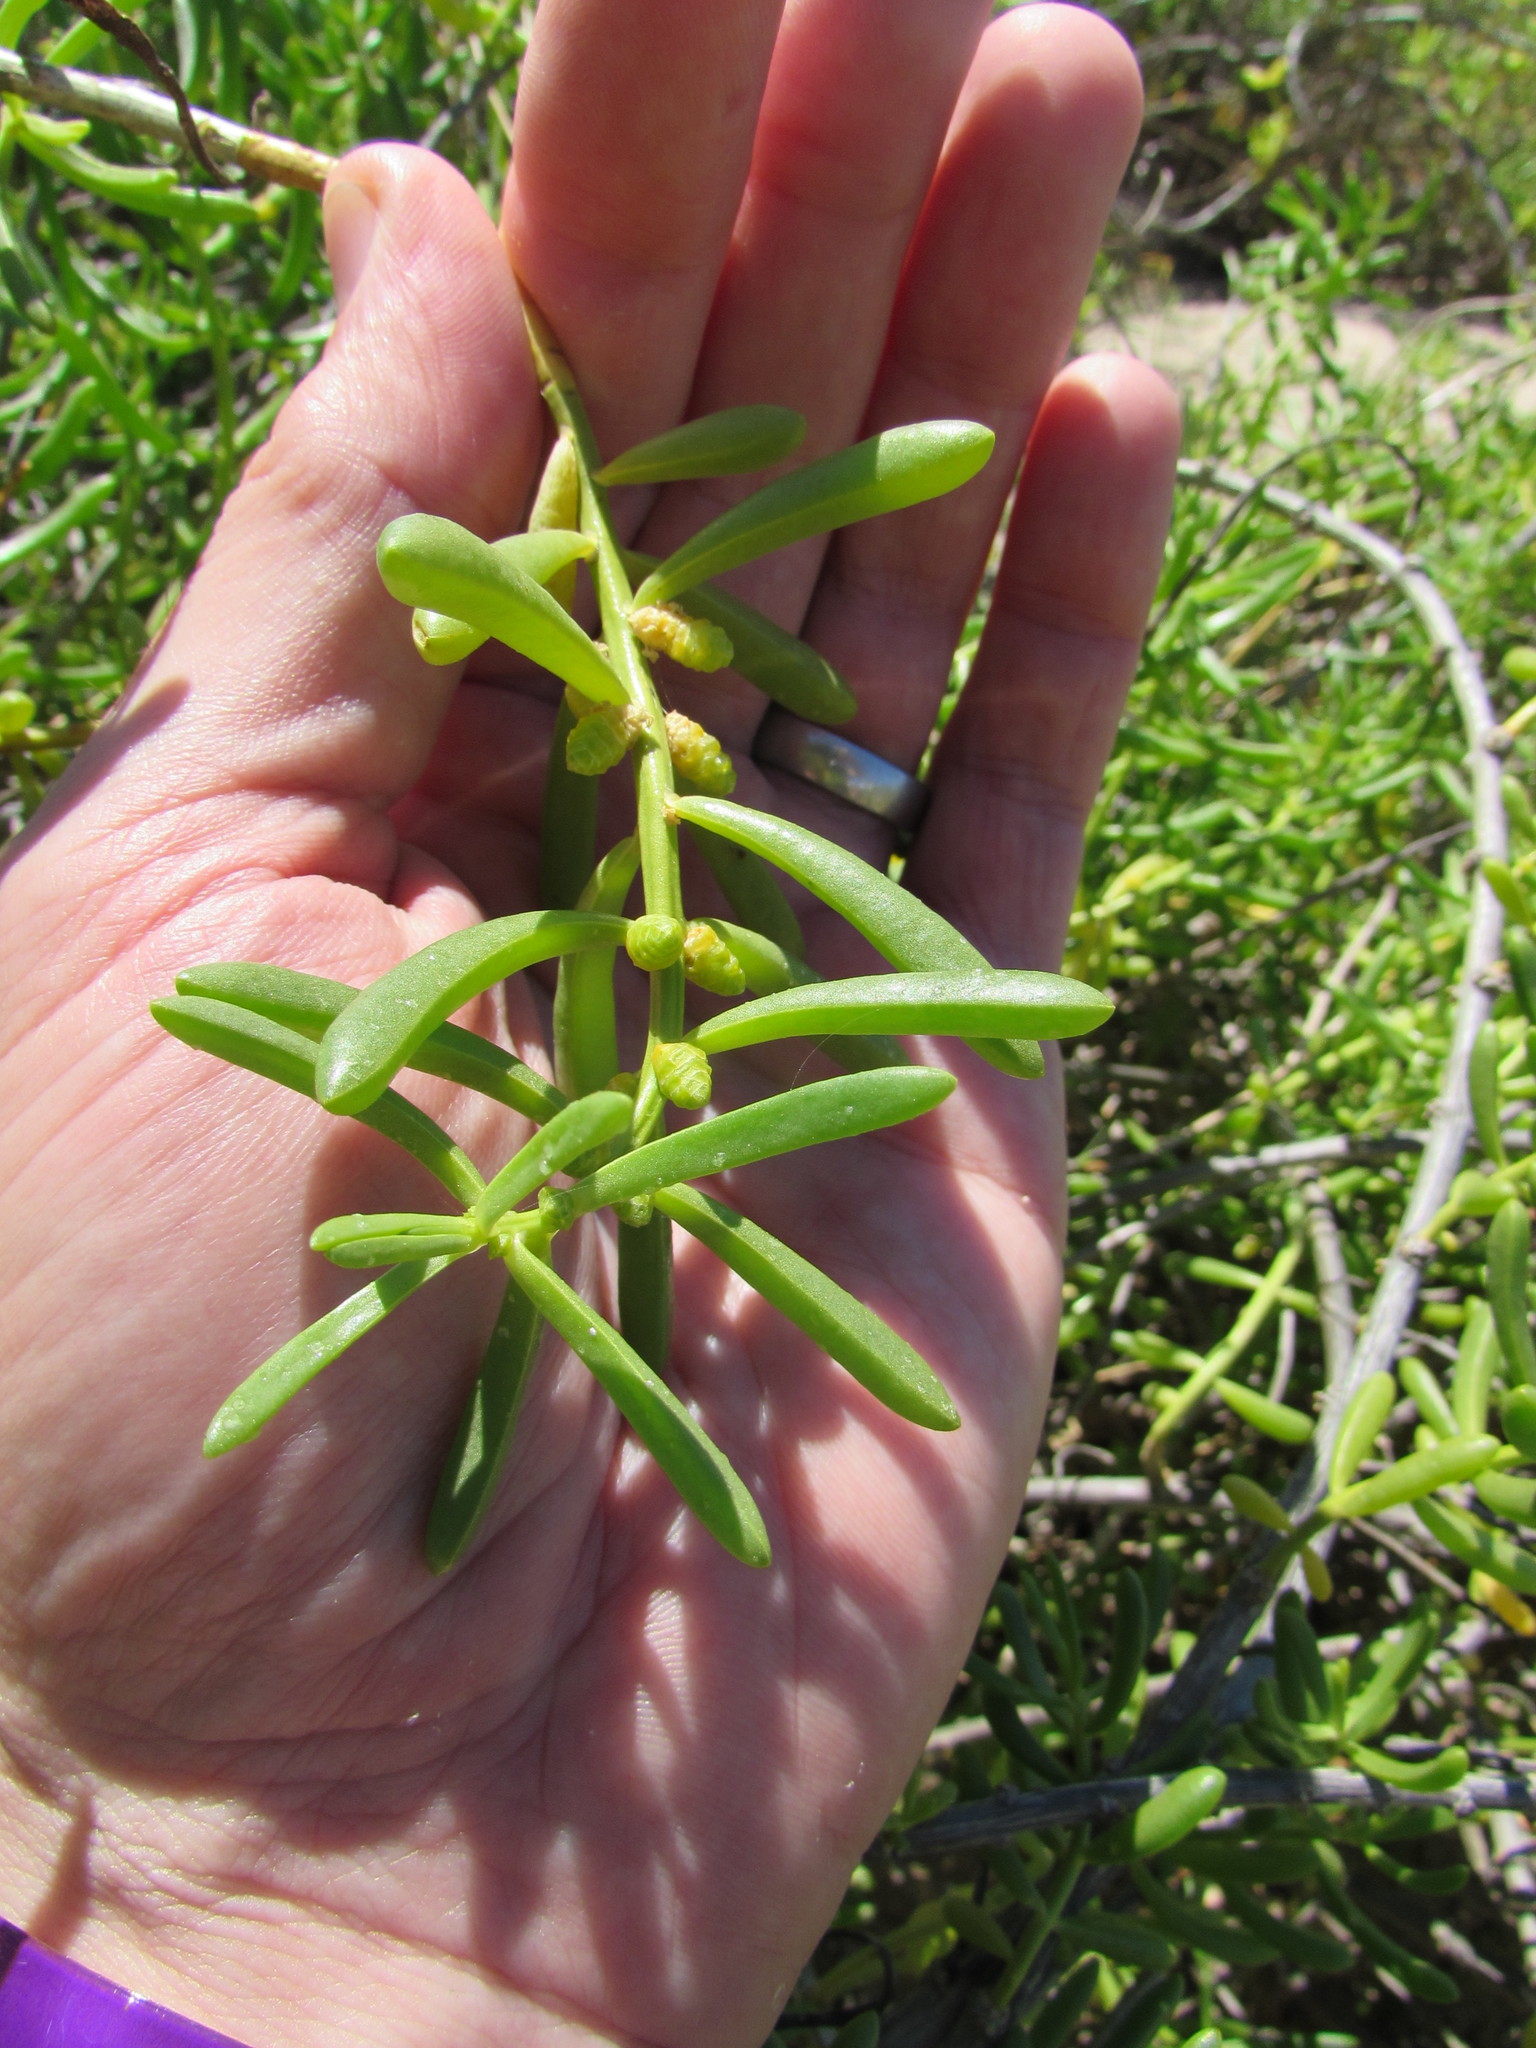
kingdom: Plantae
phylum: Tracheophyta
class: Magnoliopsida
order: Brassicales
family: Bataceae
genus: Batis
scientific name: Batis maritima
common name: Turtleweed
